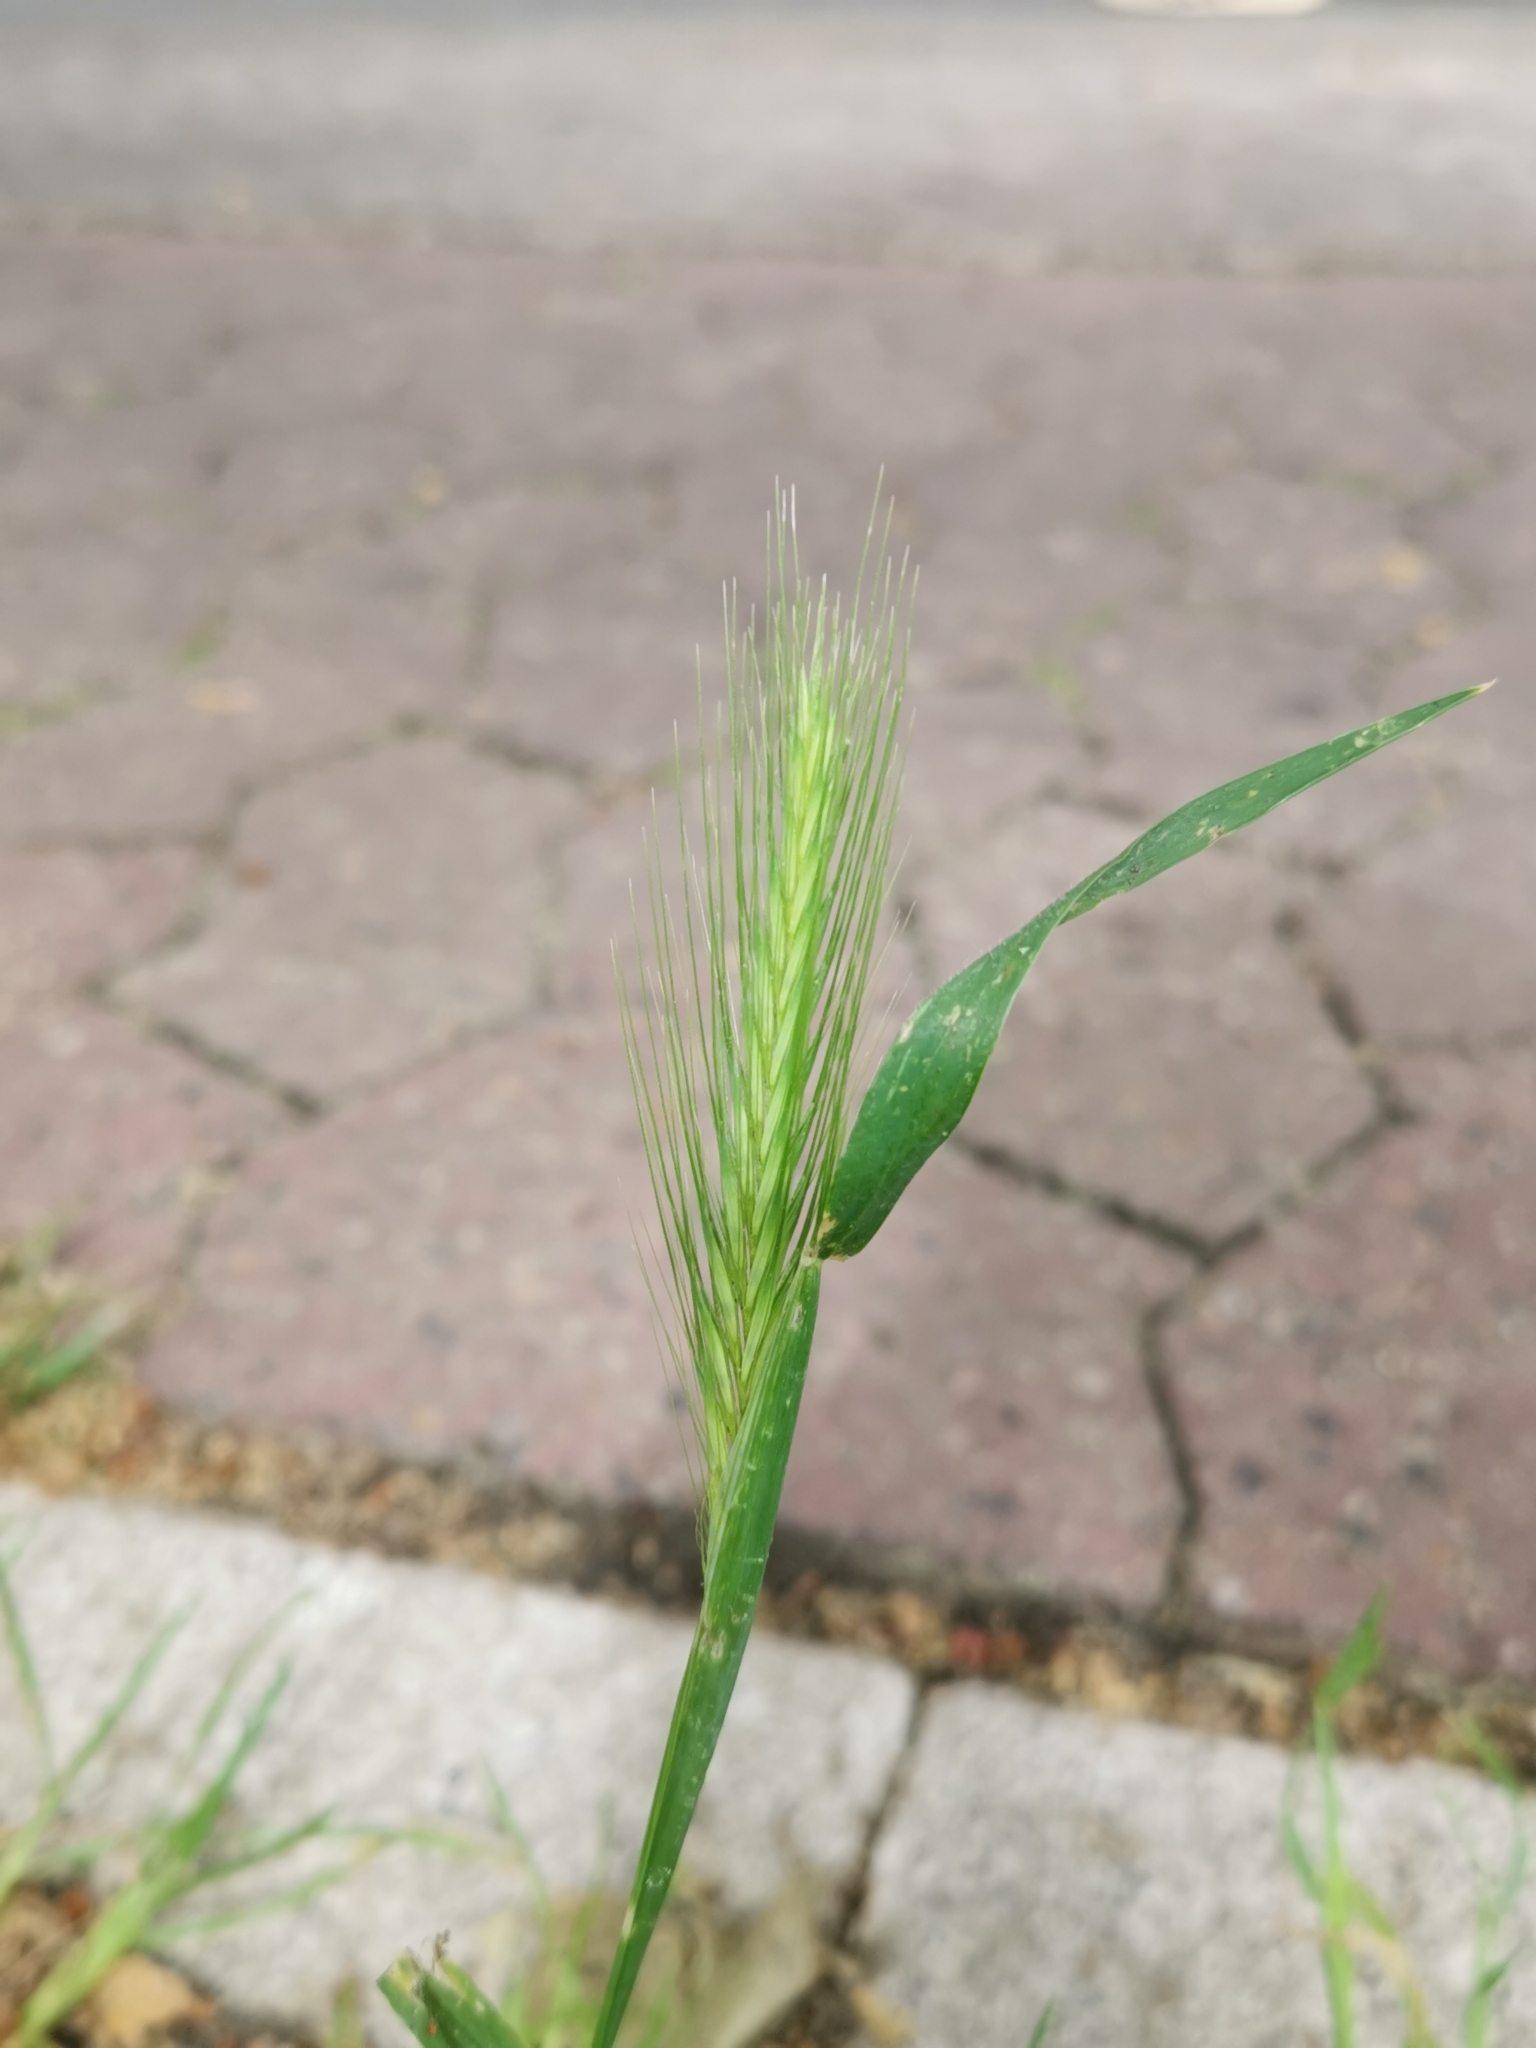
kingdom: Plantae
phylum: Tracheophyta
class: Liliopsida
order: Poales
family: Poaceae
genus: Hordeum
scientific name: Hordeum murinum
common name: Wall barley
